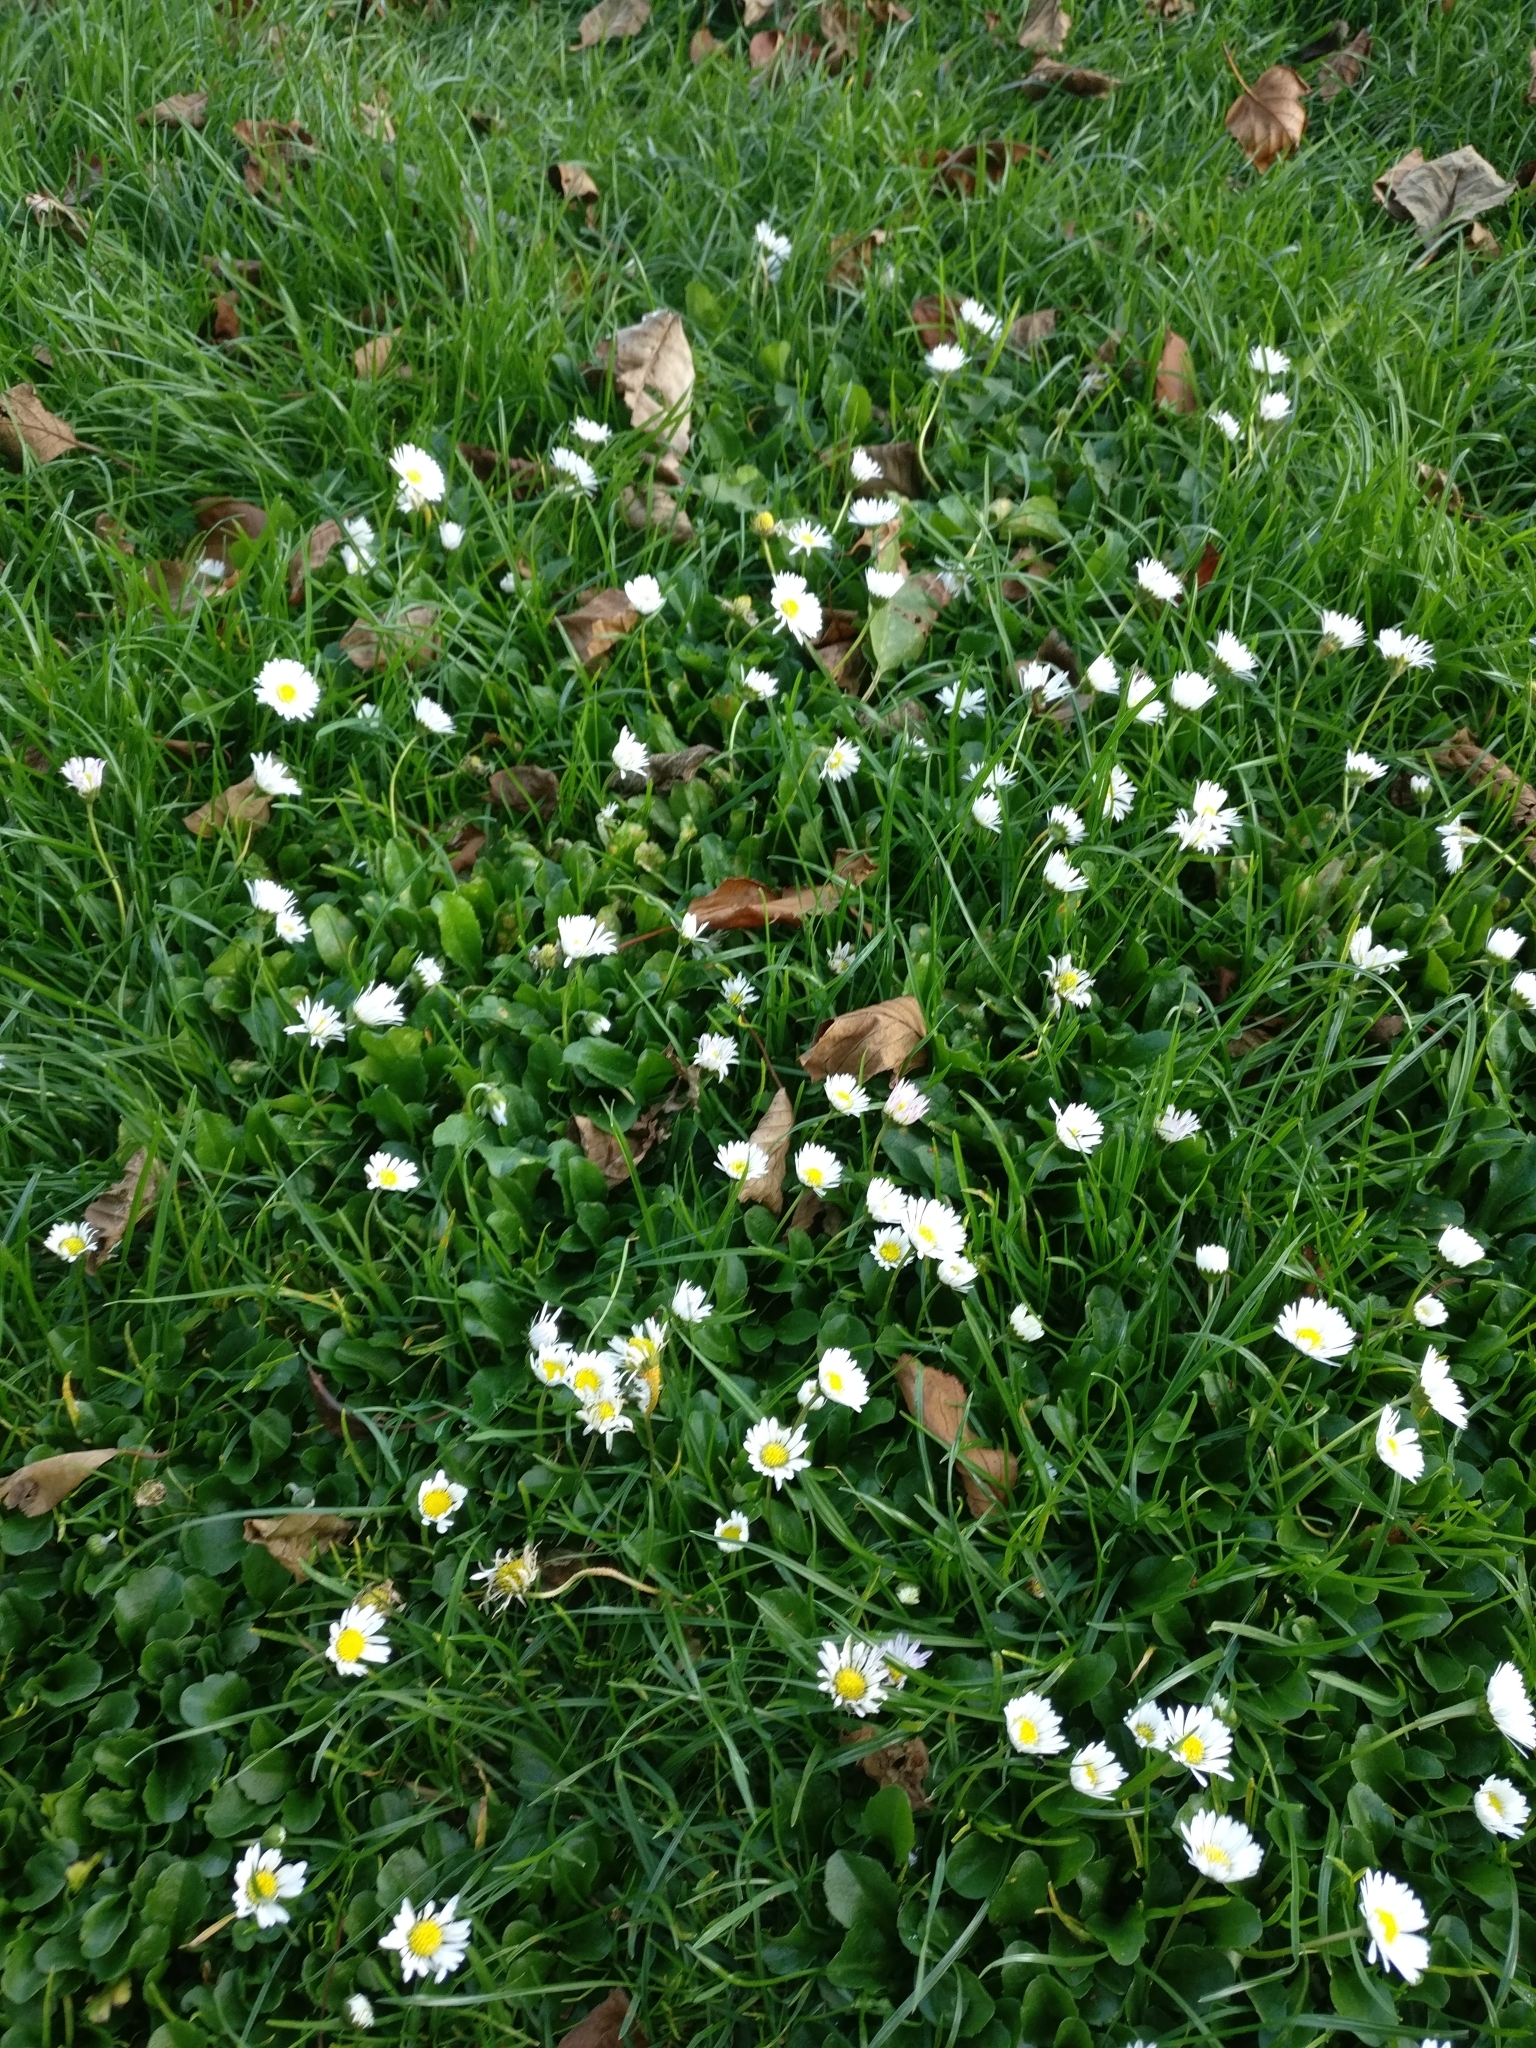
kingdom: Plantae
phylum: Tracheophyta
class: Magnoliopsida
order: Asterales
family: Asteraceae
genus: Bellis
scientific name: Bellis perennis
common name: Lawndaisy
